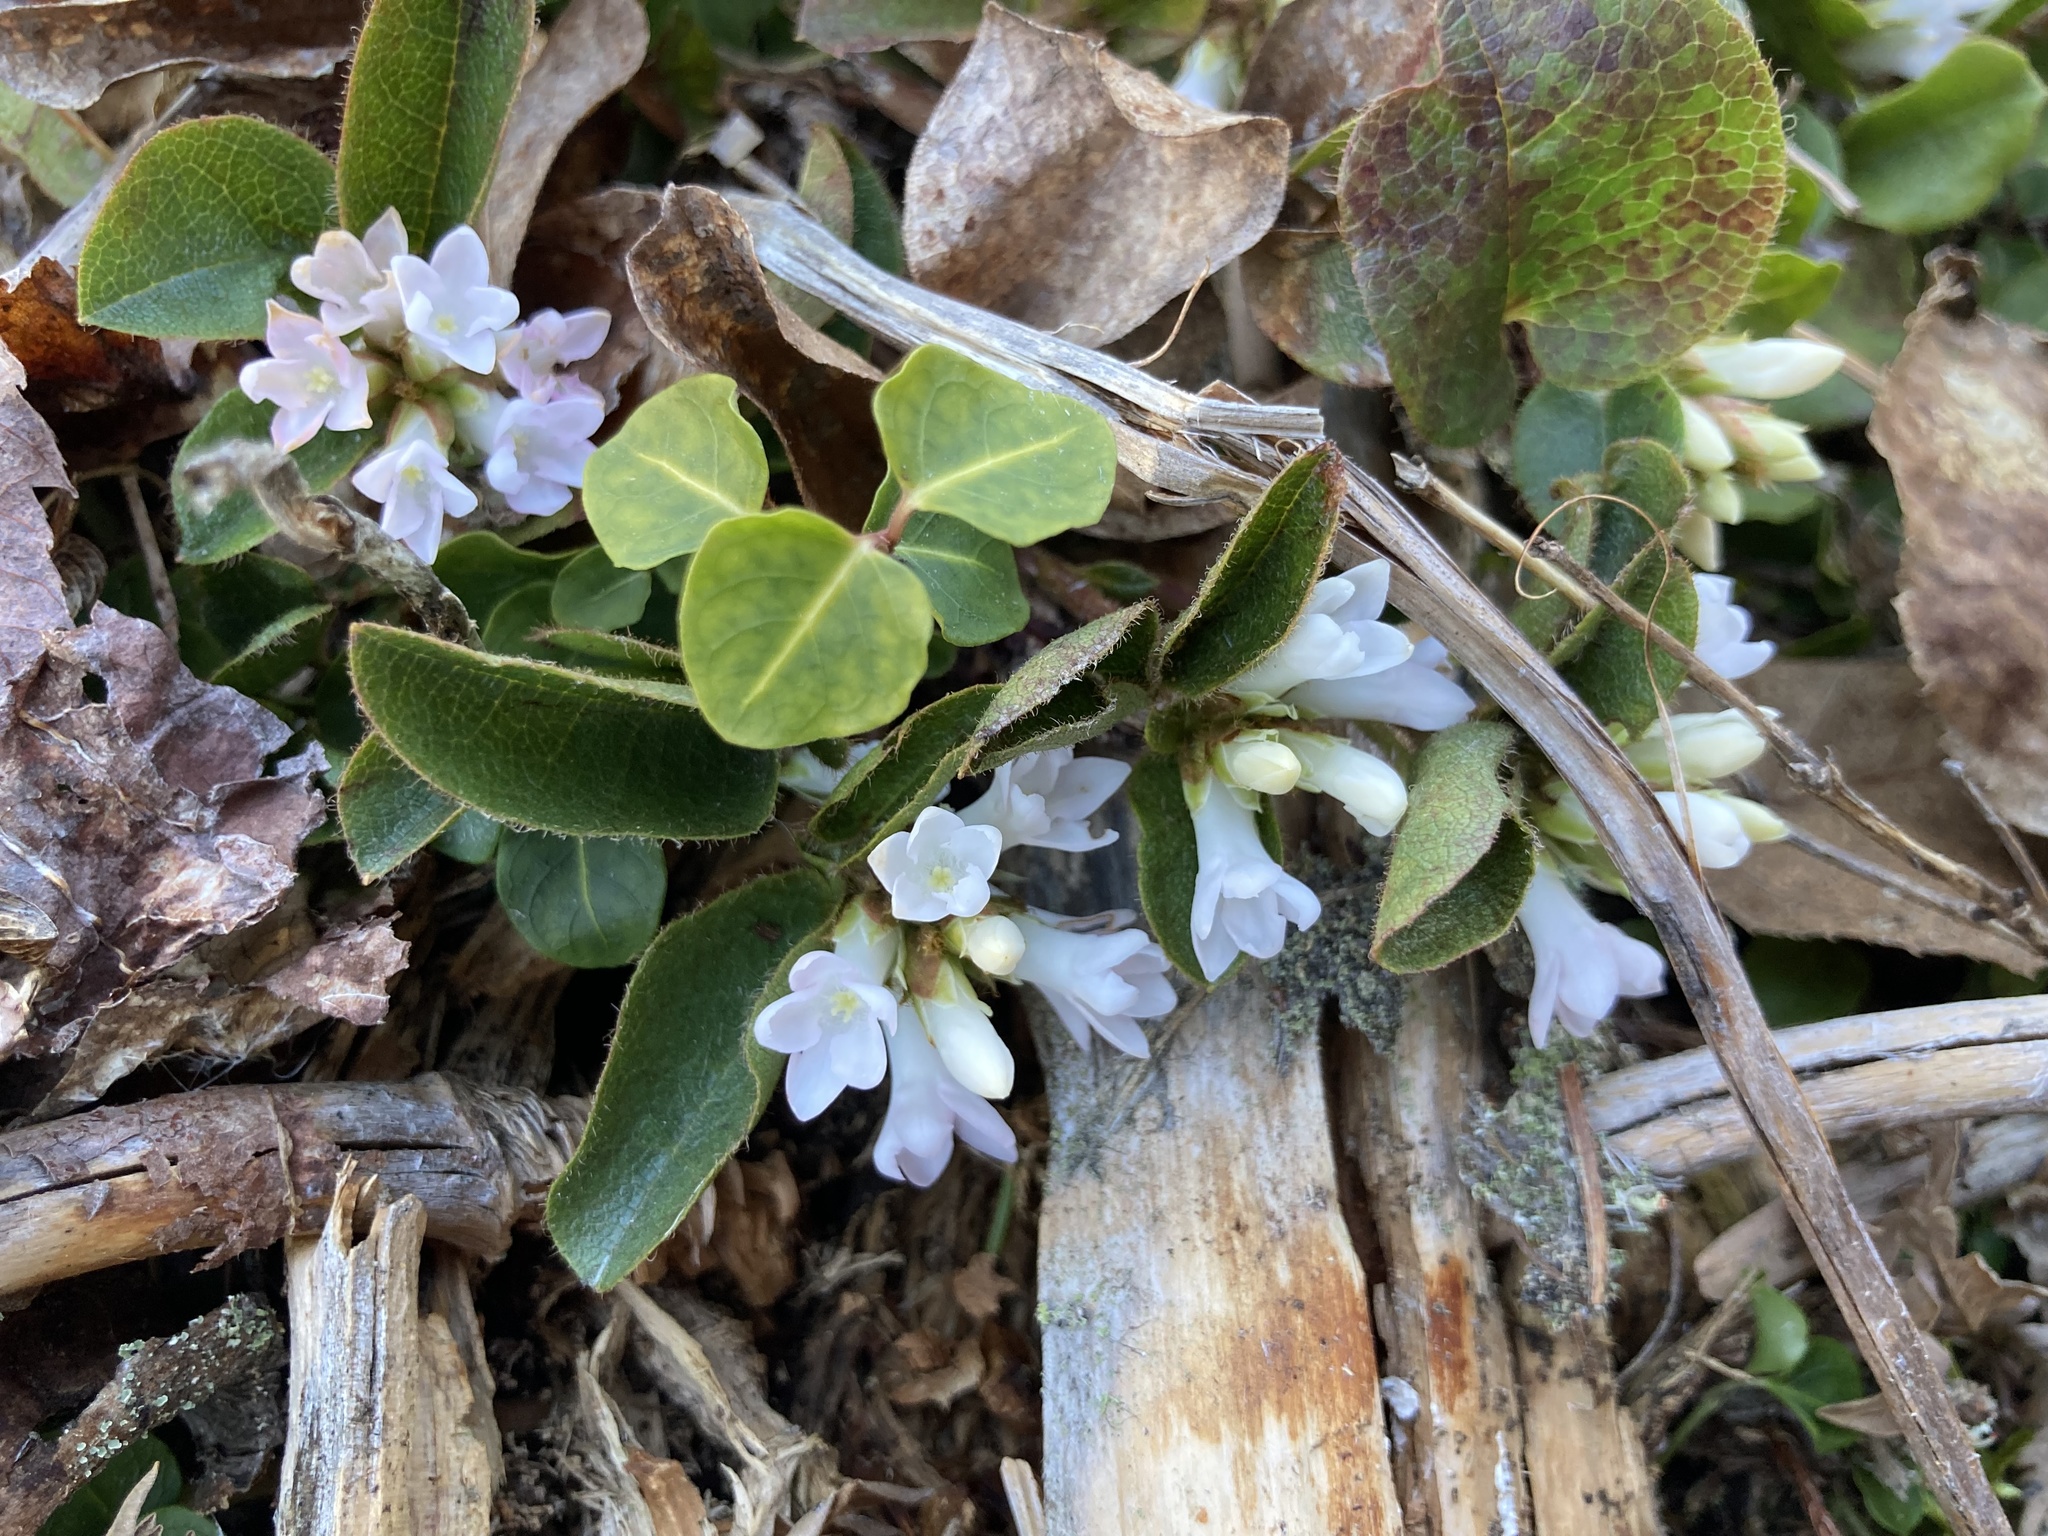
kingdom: Plantae
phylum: Tracheophyta
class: Magnoliopsida
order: Ericales
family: Ericaceae
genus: Epigaea
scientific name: Epigaea repens
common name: Gravelroot
